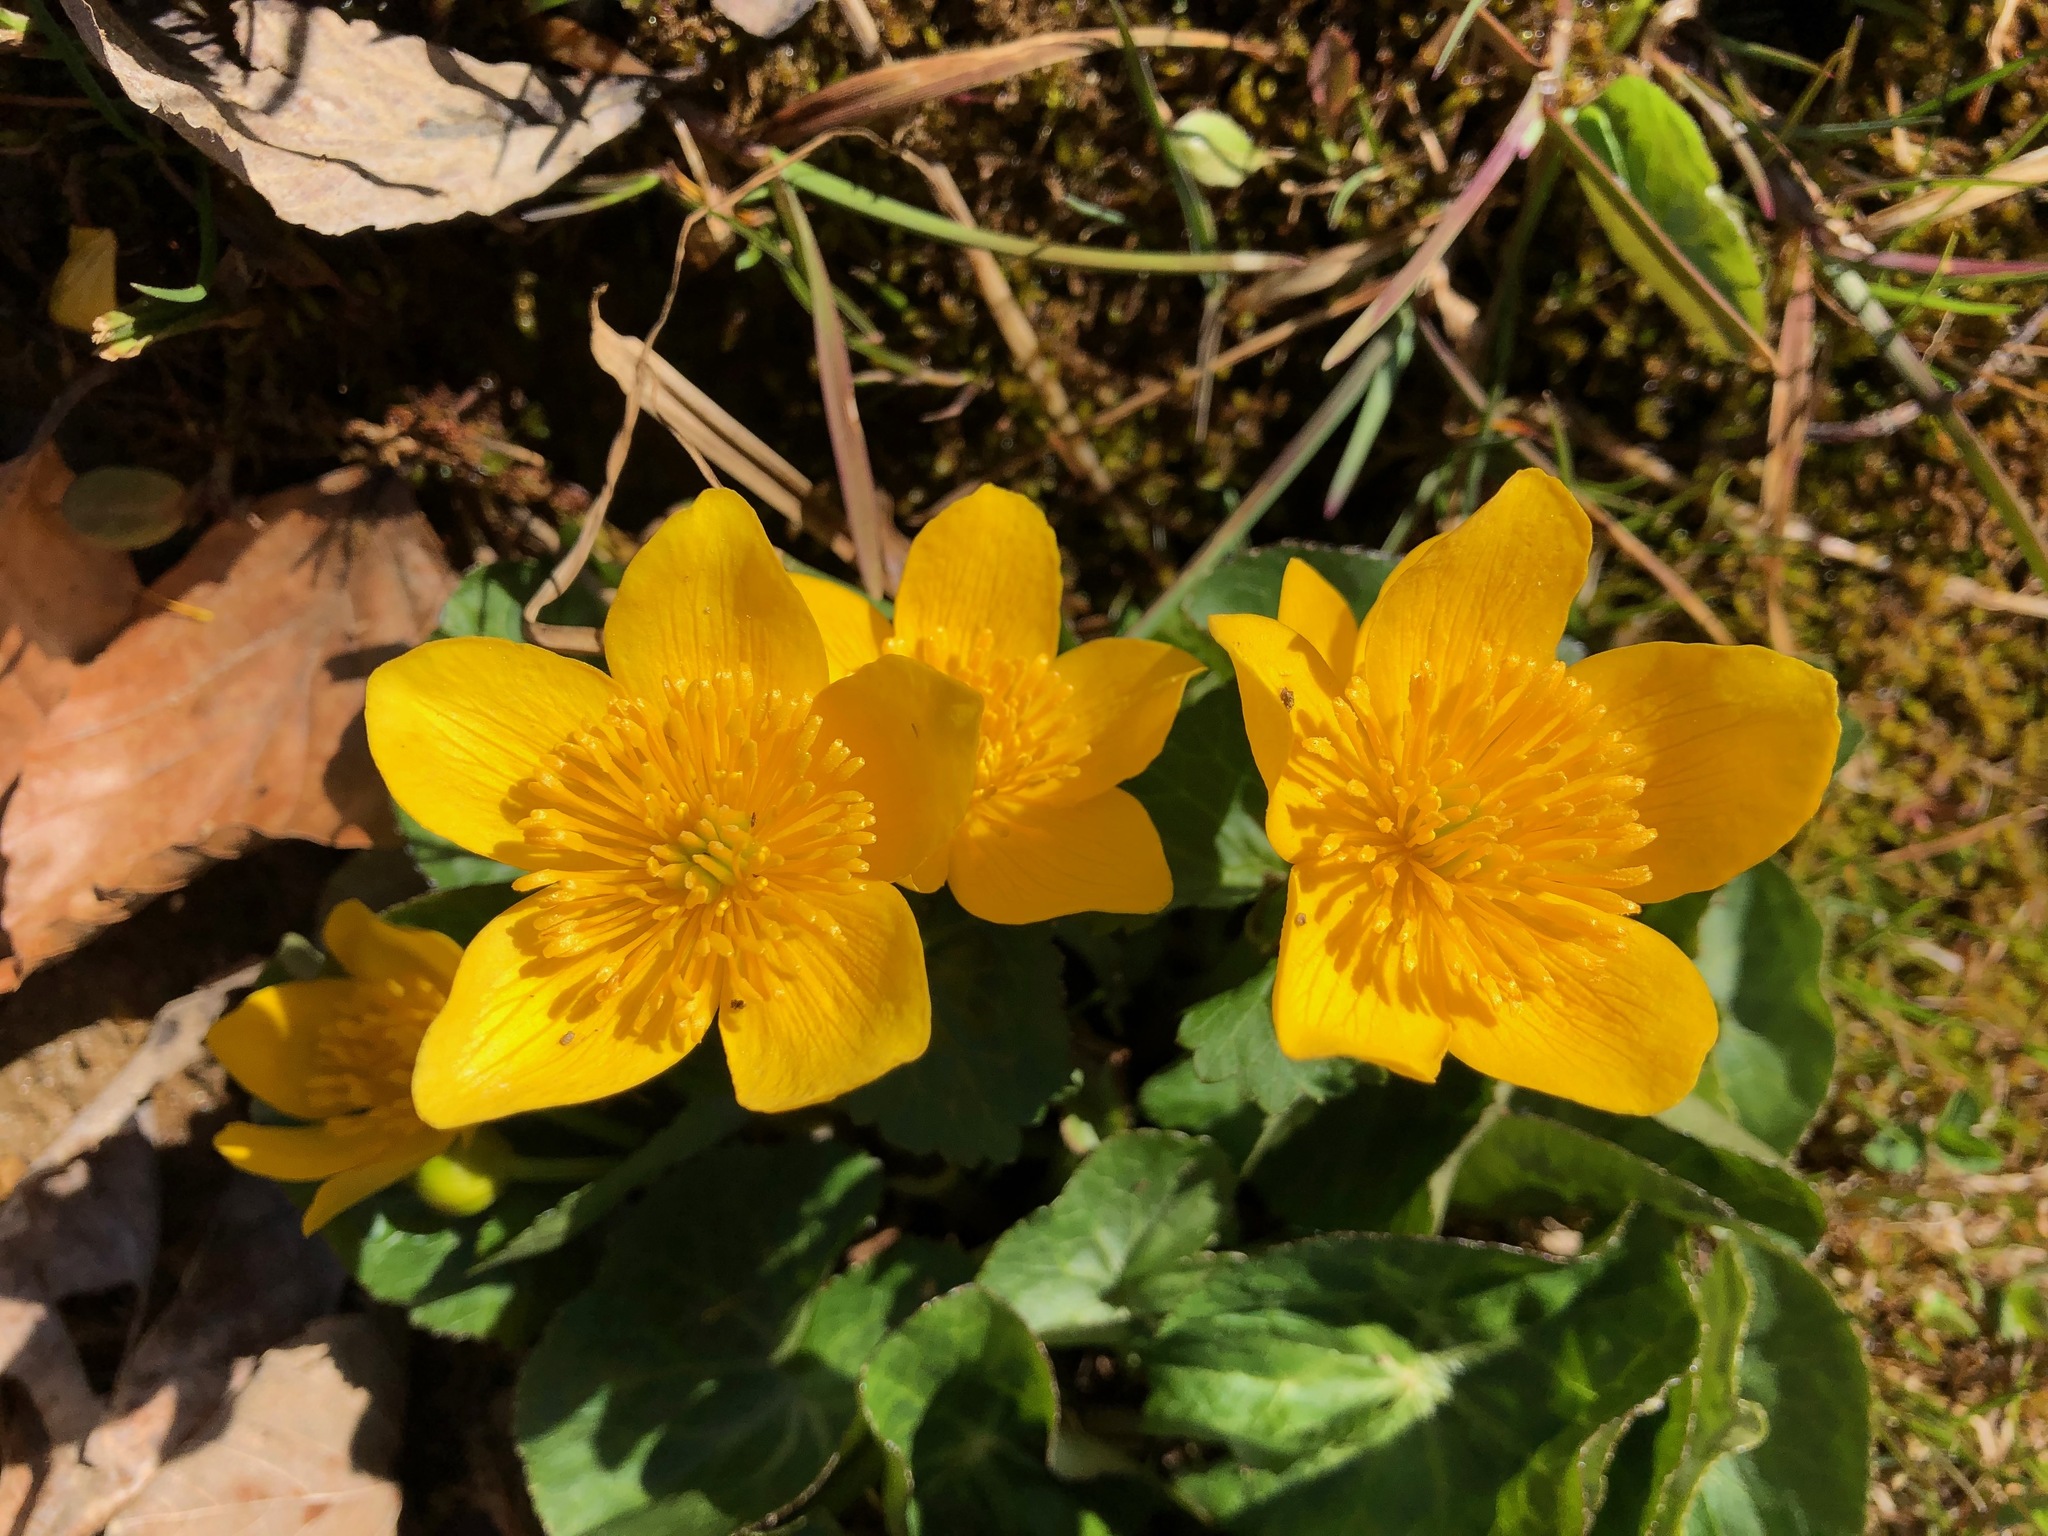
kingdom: Plantae
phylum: Tracheophyta
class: Magnoliopsida
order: Ranunculales
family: Ranunculaceae
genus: Caltha
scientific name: Caltha palustris
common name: Marsh marigold
